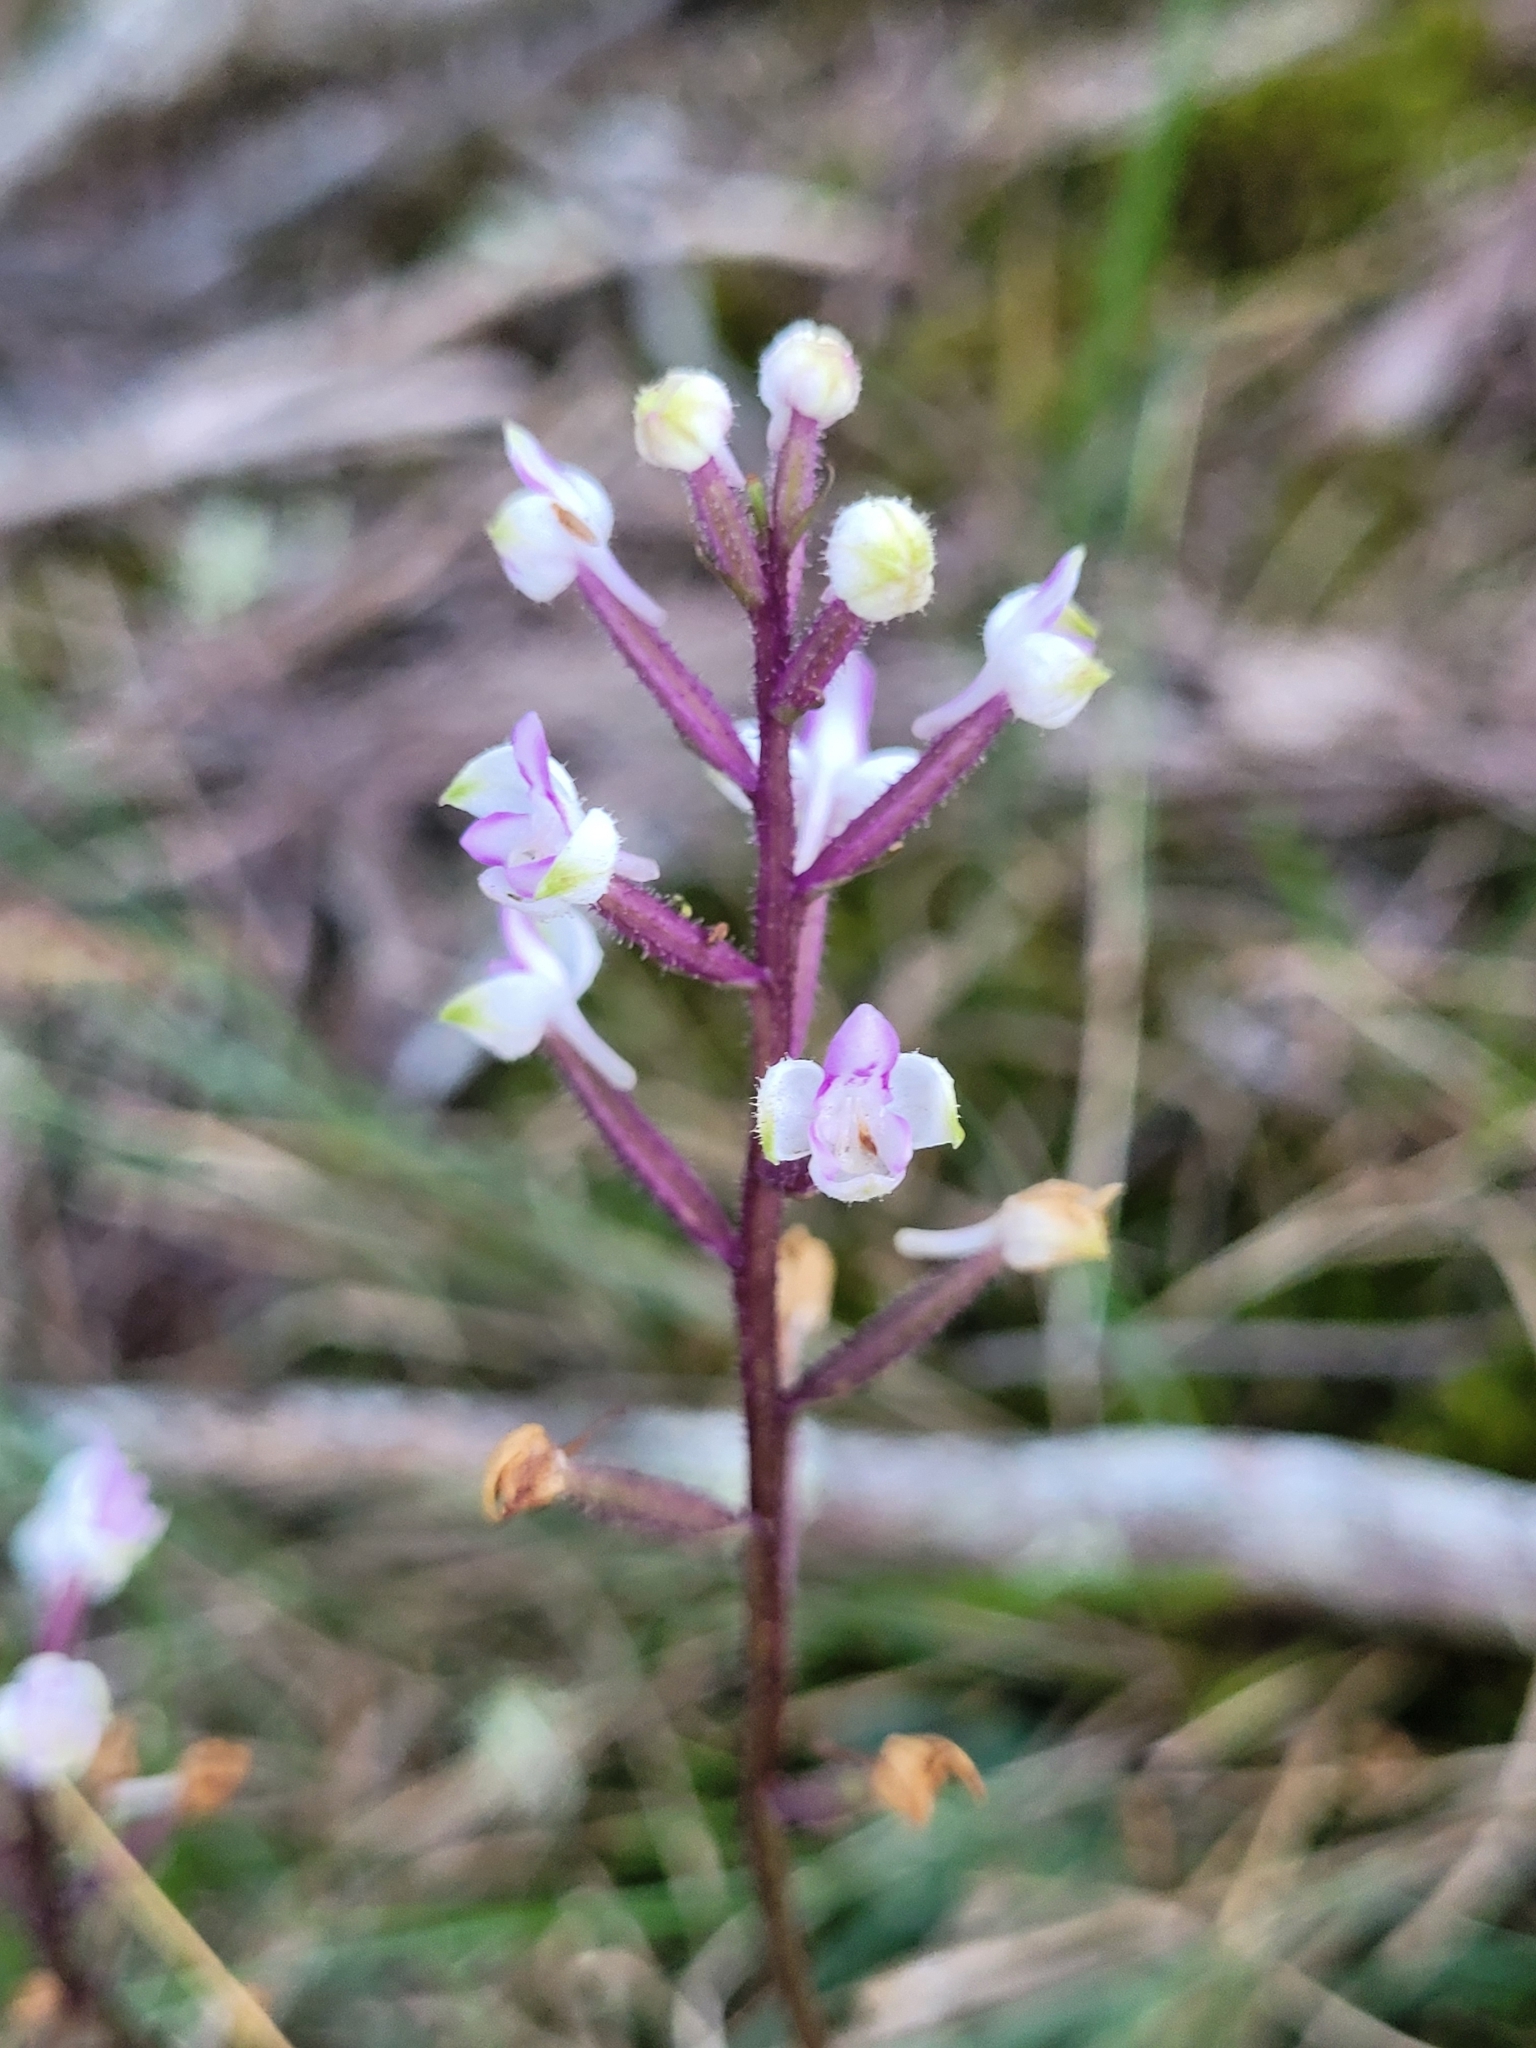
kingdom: Plantae
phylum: Tracheophyta
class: Liliopsida
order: Asparagales
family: Orchidaceae
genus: Cynorkis
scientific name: Cynorkis ridleyi
